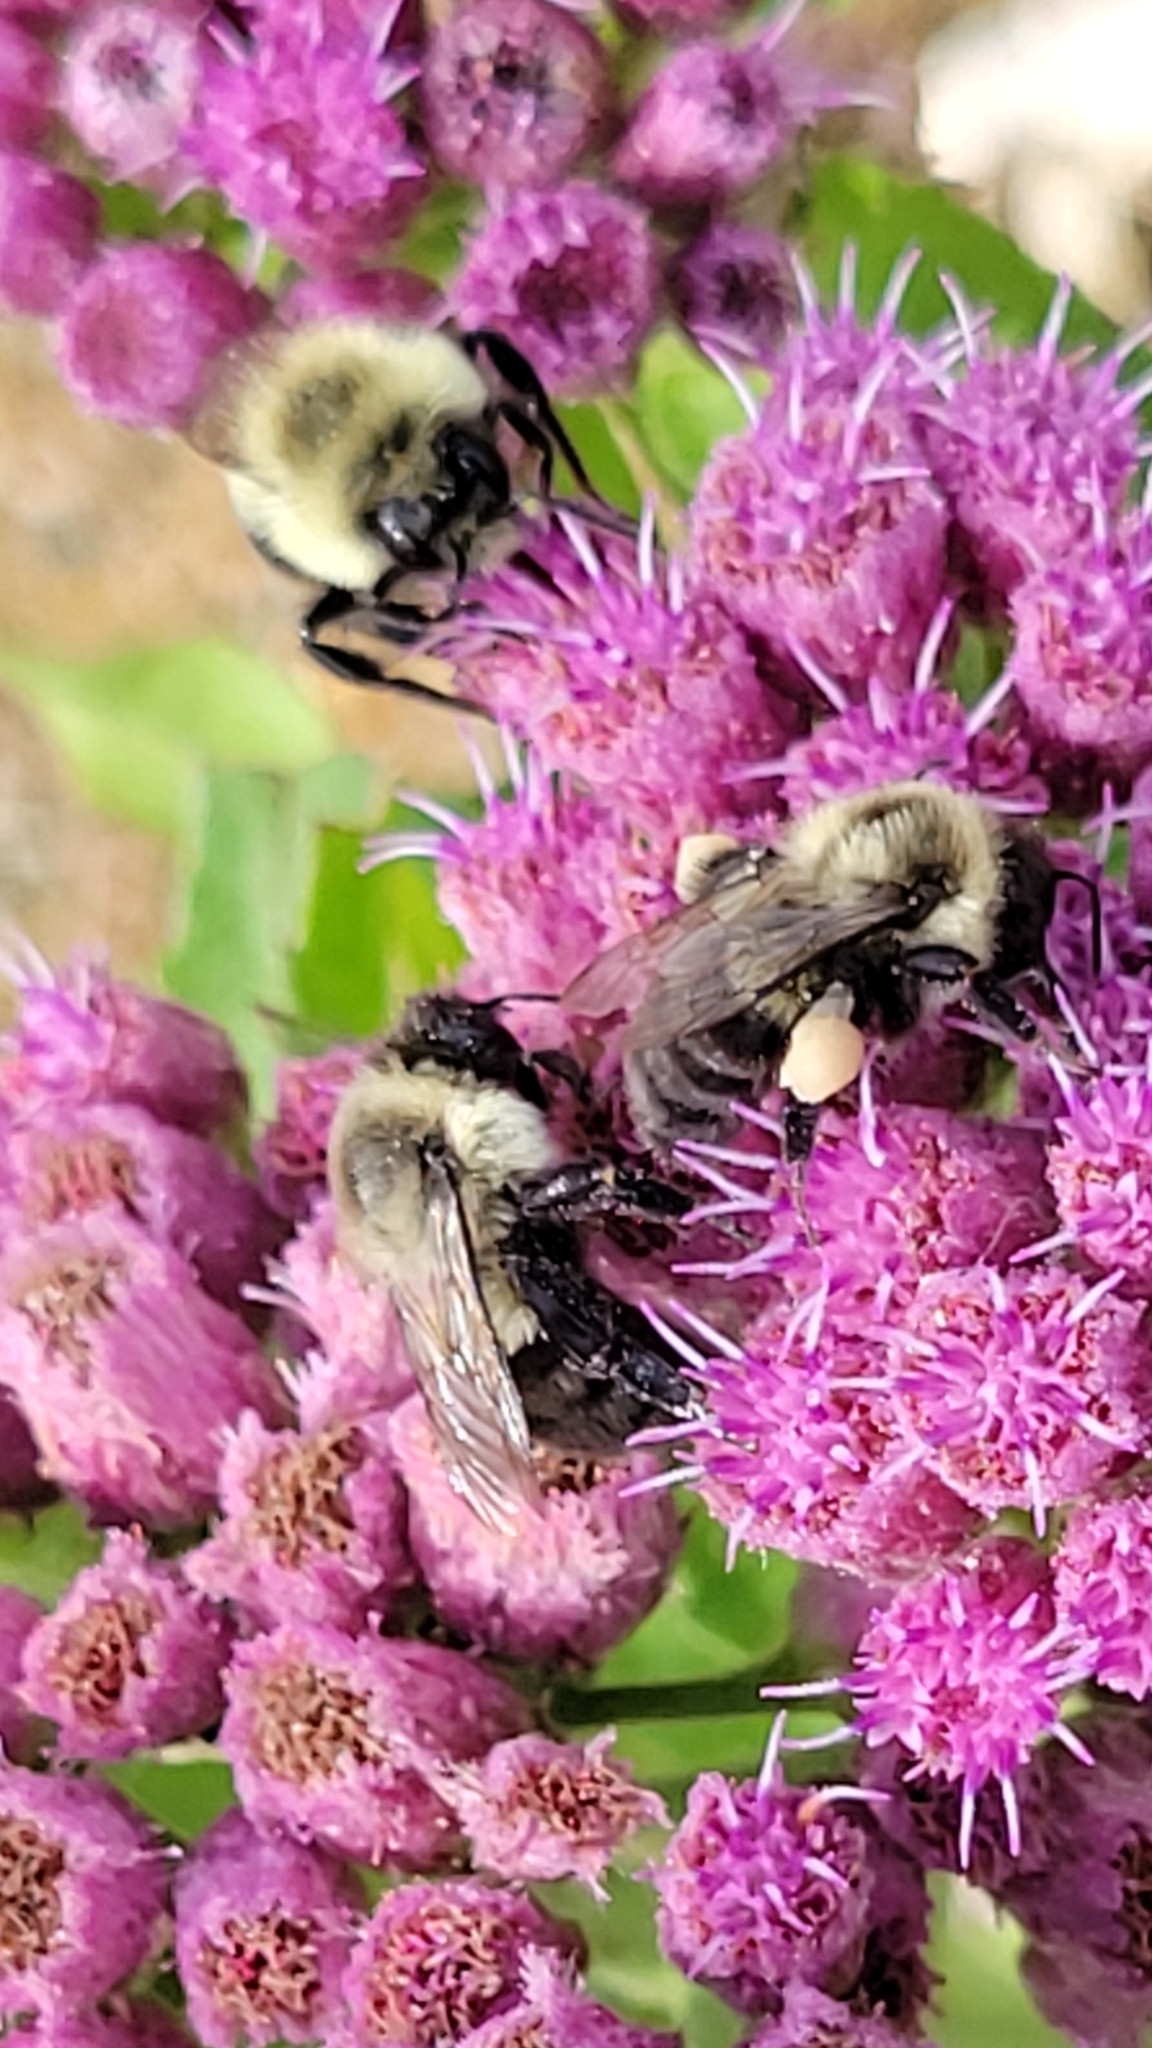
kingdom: Animalia
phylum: Arthropoda
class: Insecta
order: Hymenoptera
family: Apidae
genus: Bombus
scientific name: Bombus impatiens
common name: Common eastern bumble bee
